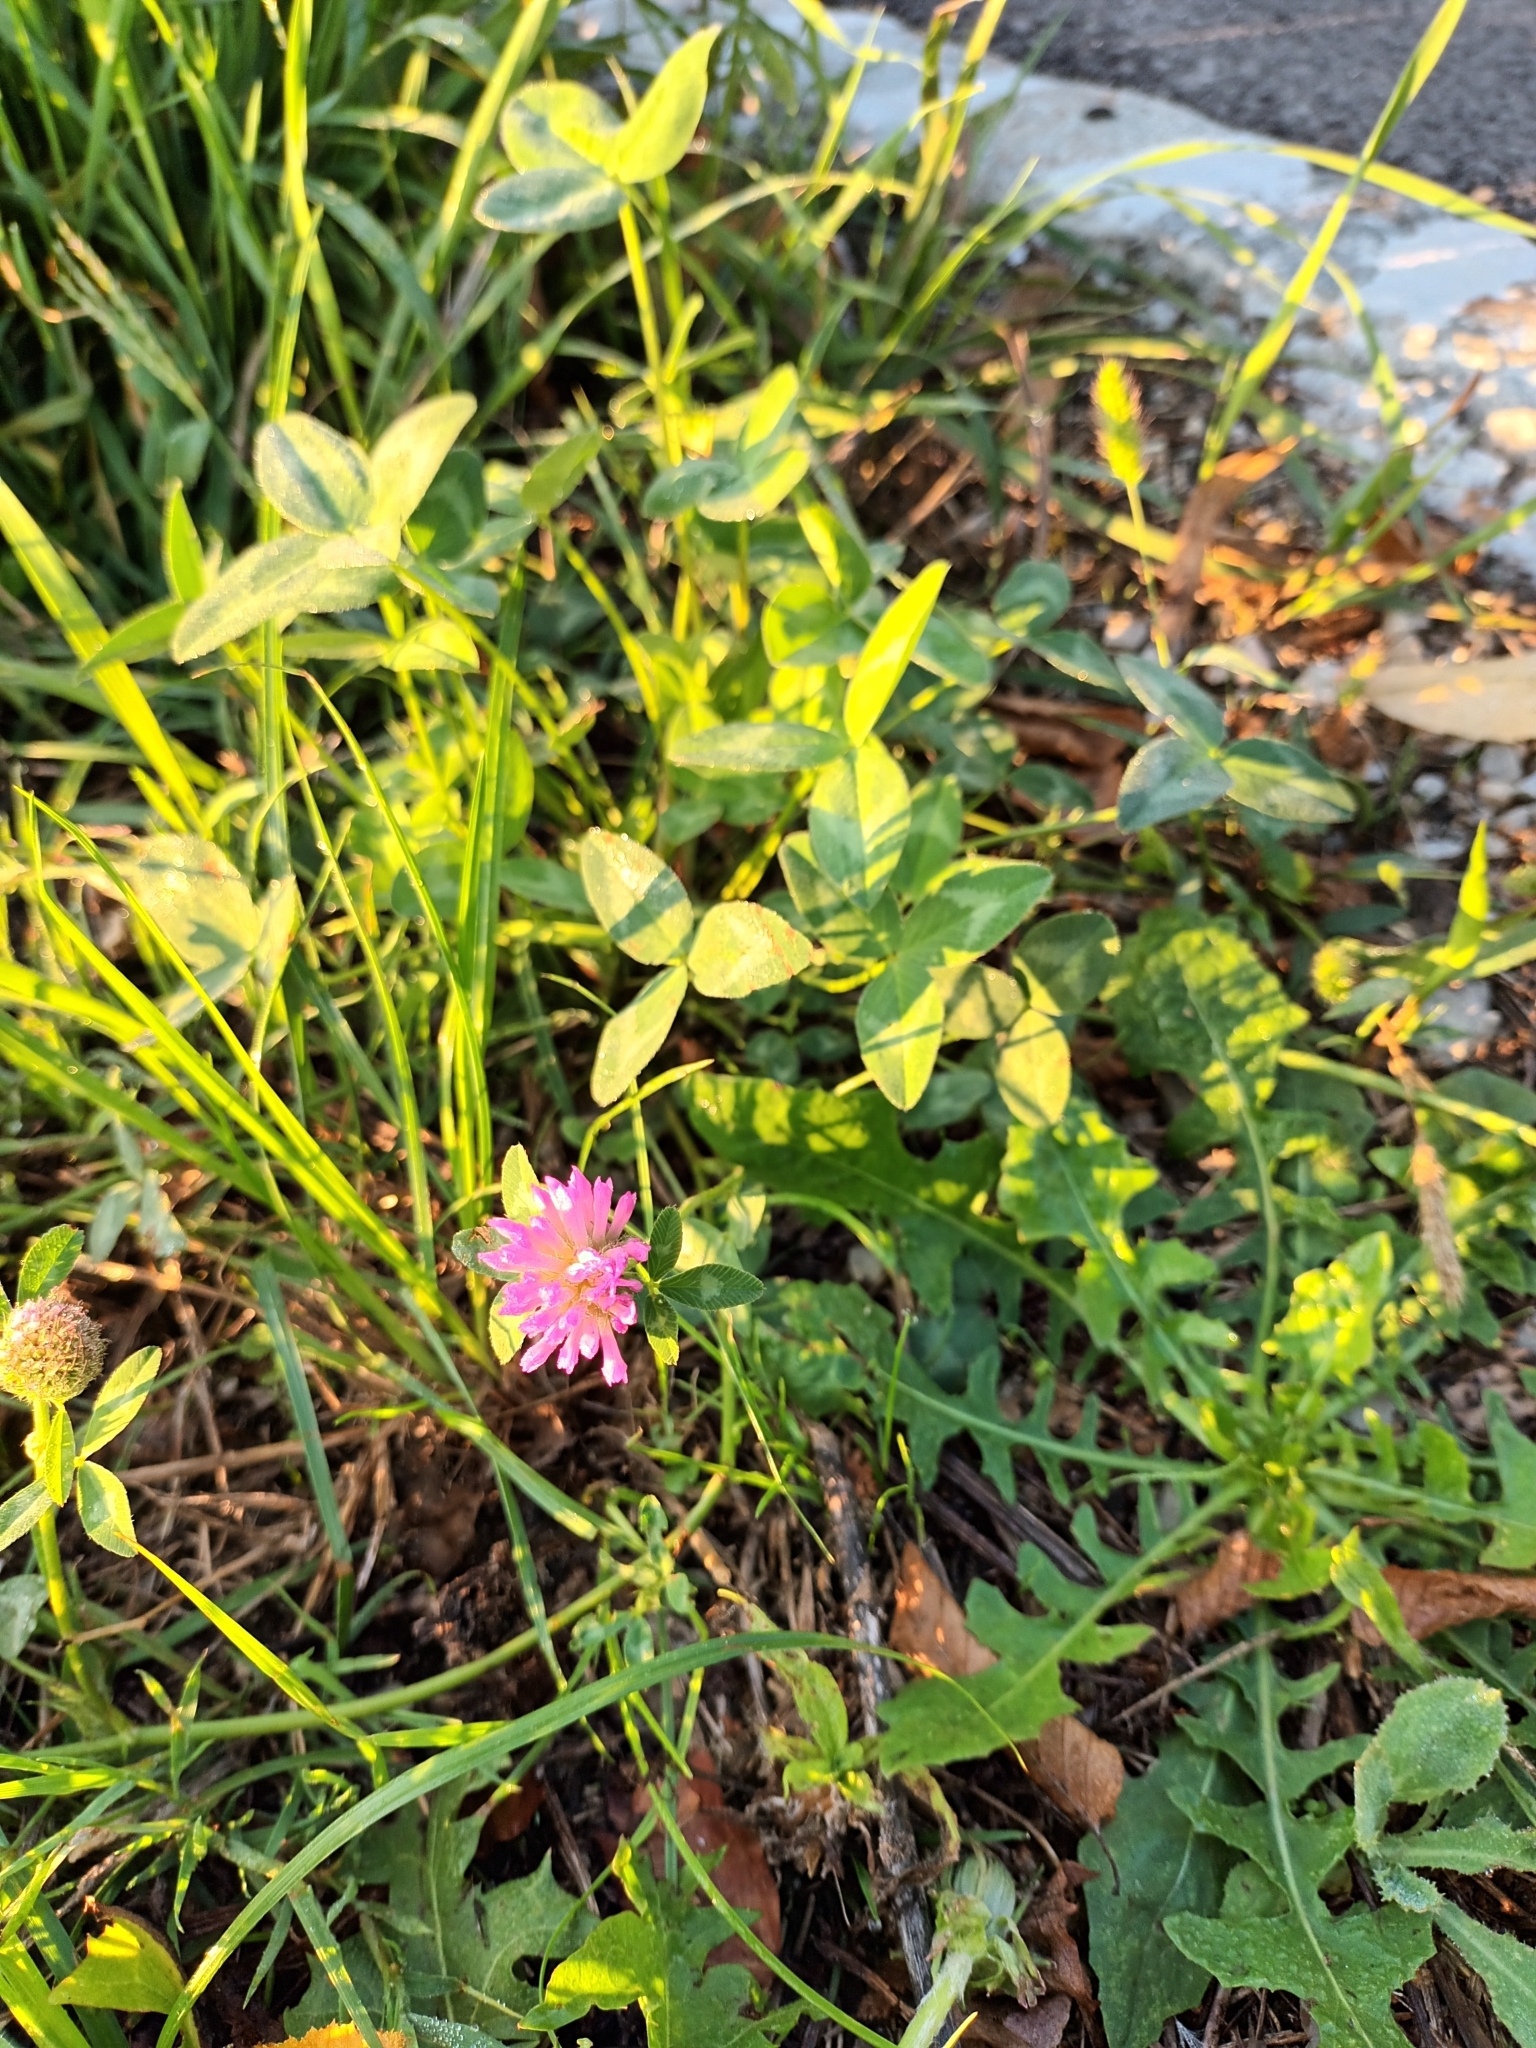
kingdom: Plantae
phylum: Tracheophyta
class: Magnoliopsida
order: Fabales
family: Fabaceae
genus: Trifolium
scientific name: Trifolium pratense
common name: Red clover
